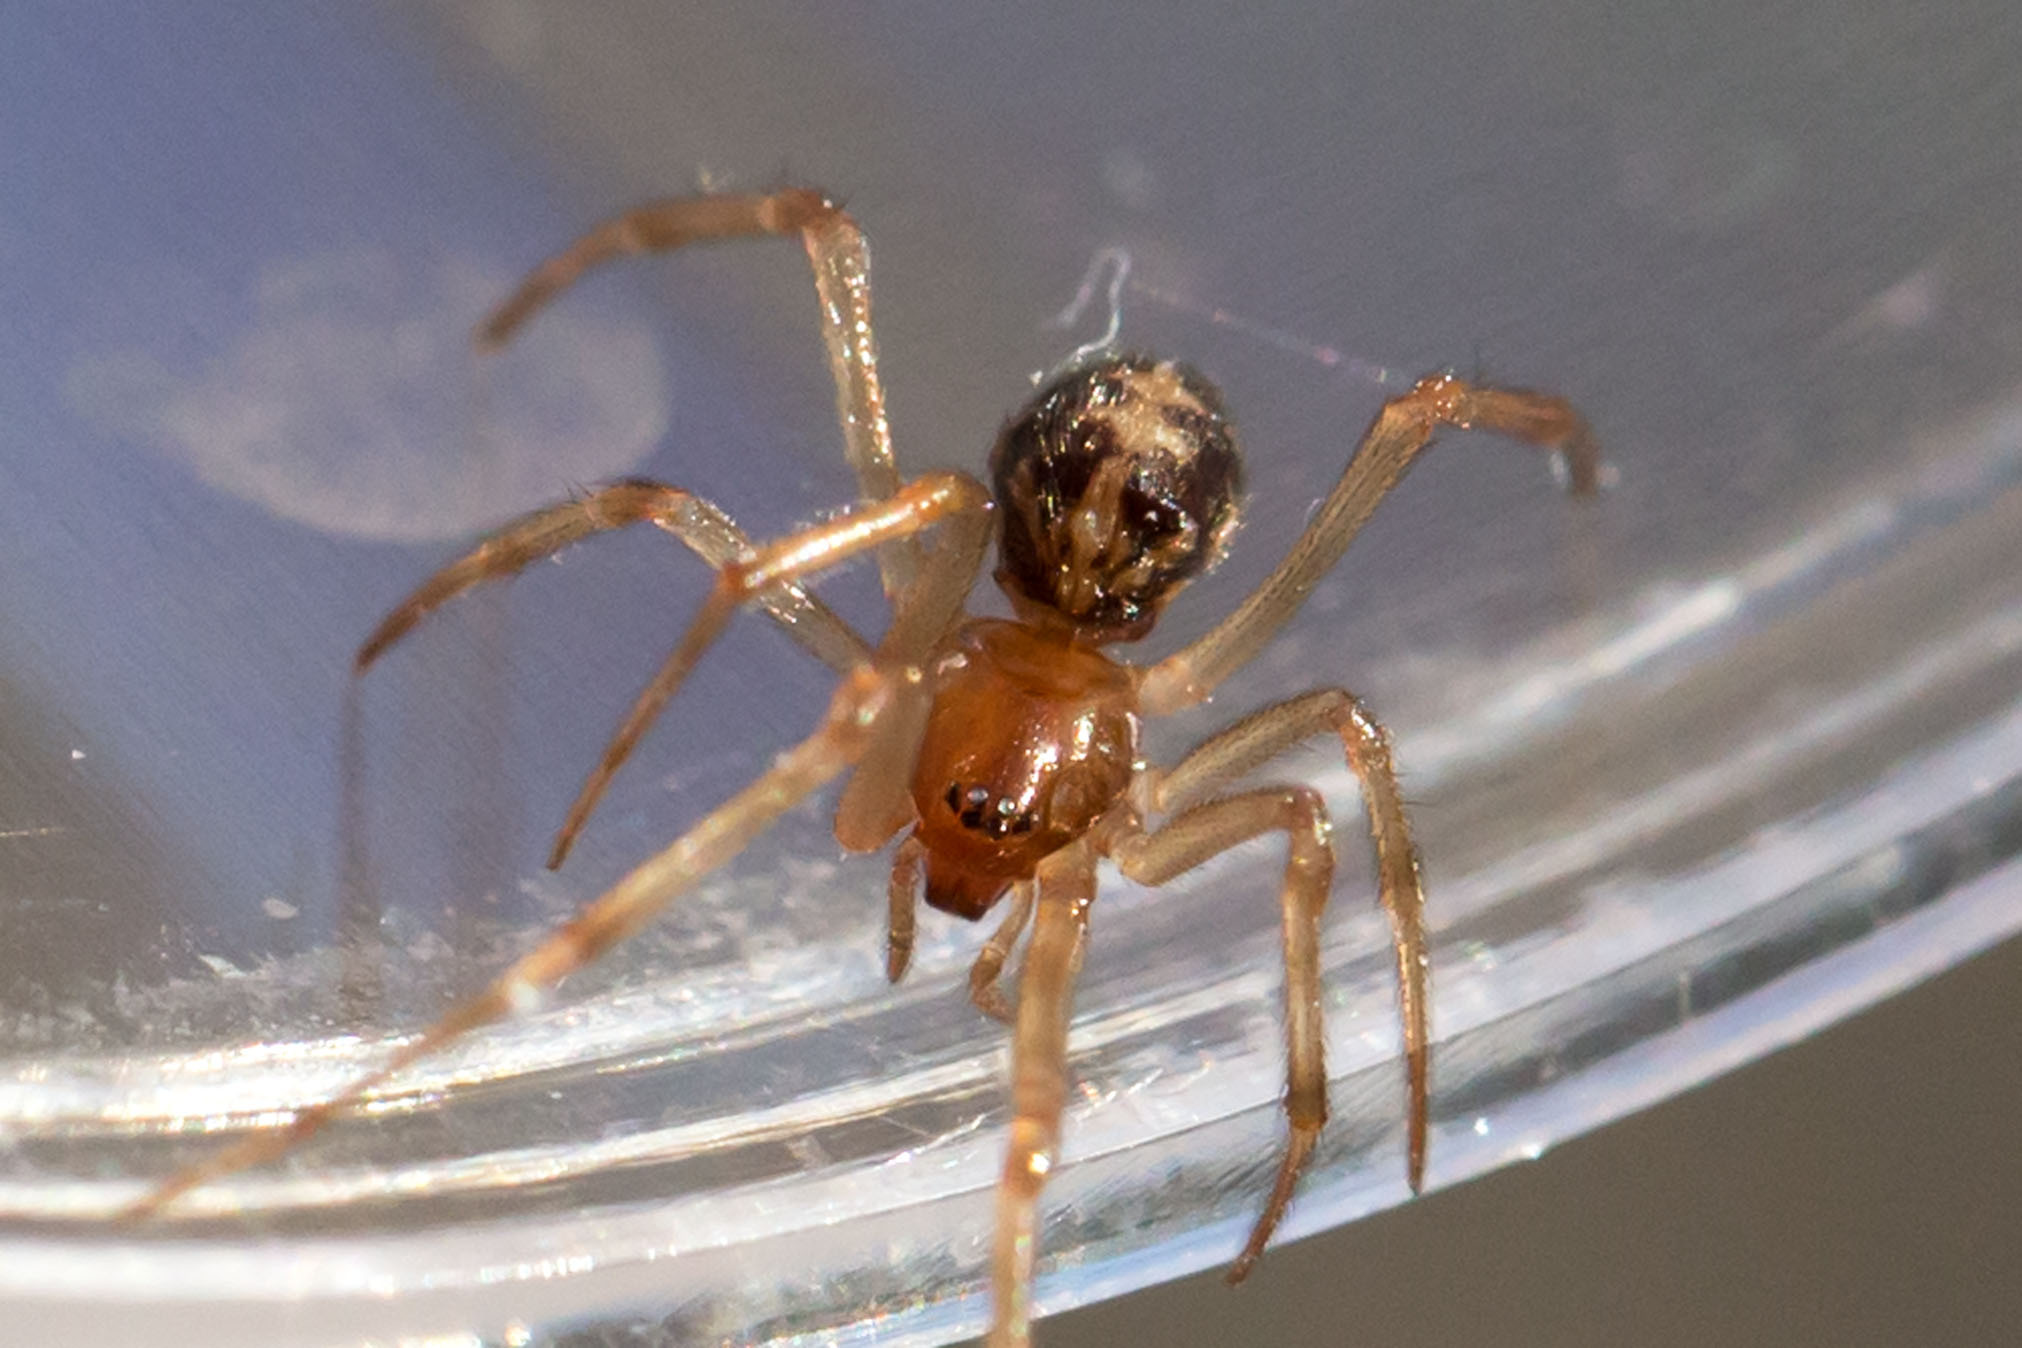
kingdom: Animalia
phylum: Arthropoda
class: Arachnida
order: Araneae
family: Theridiidae
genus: Steatoda
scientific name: Steatoda triangulosa
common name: Triangulate bud spider
